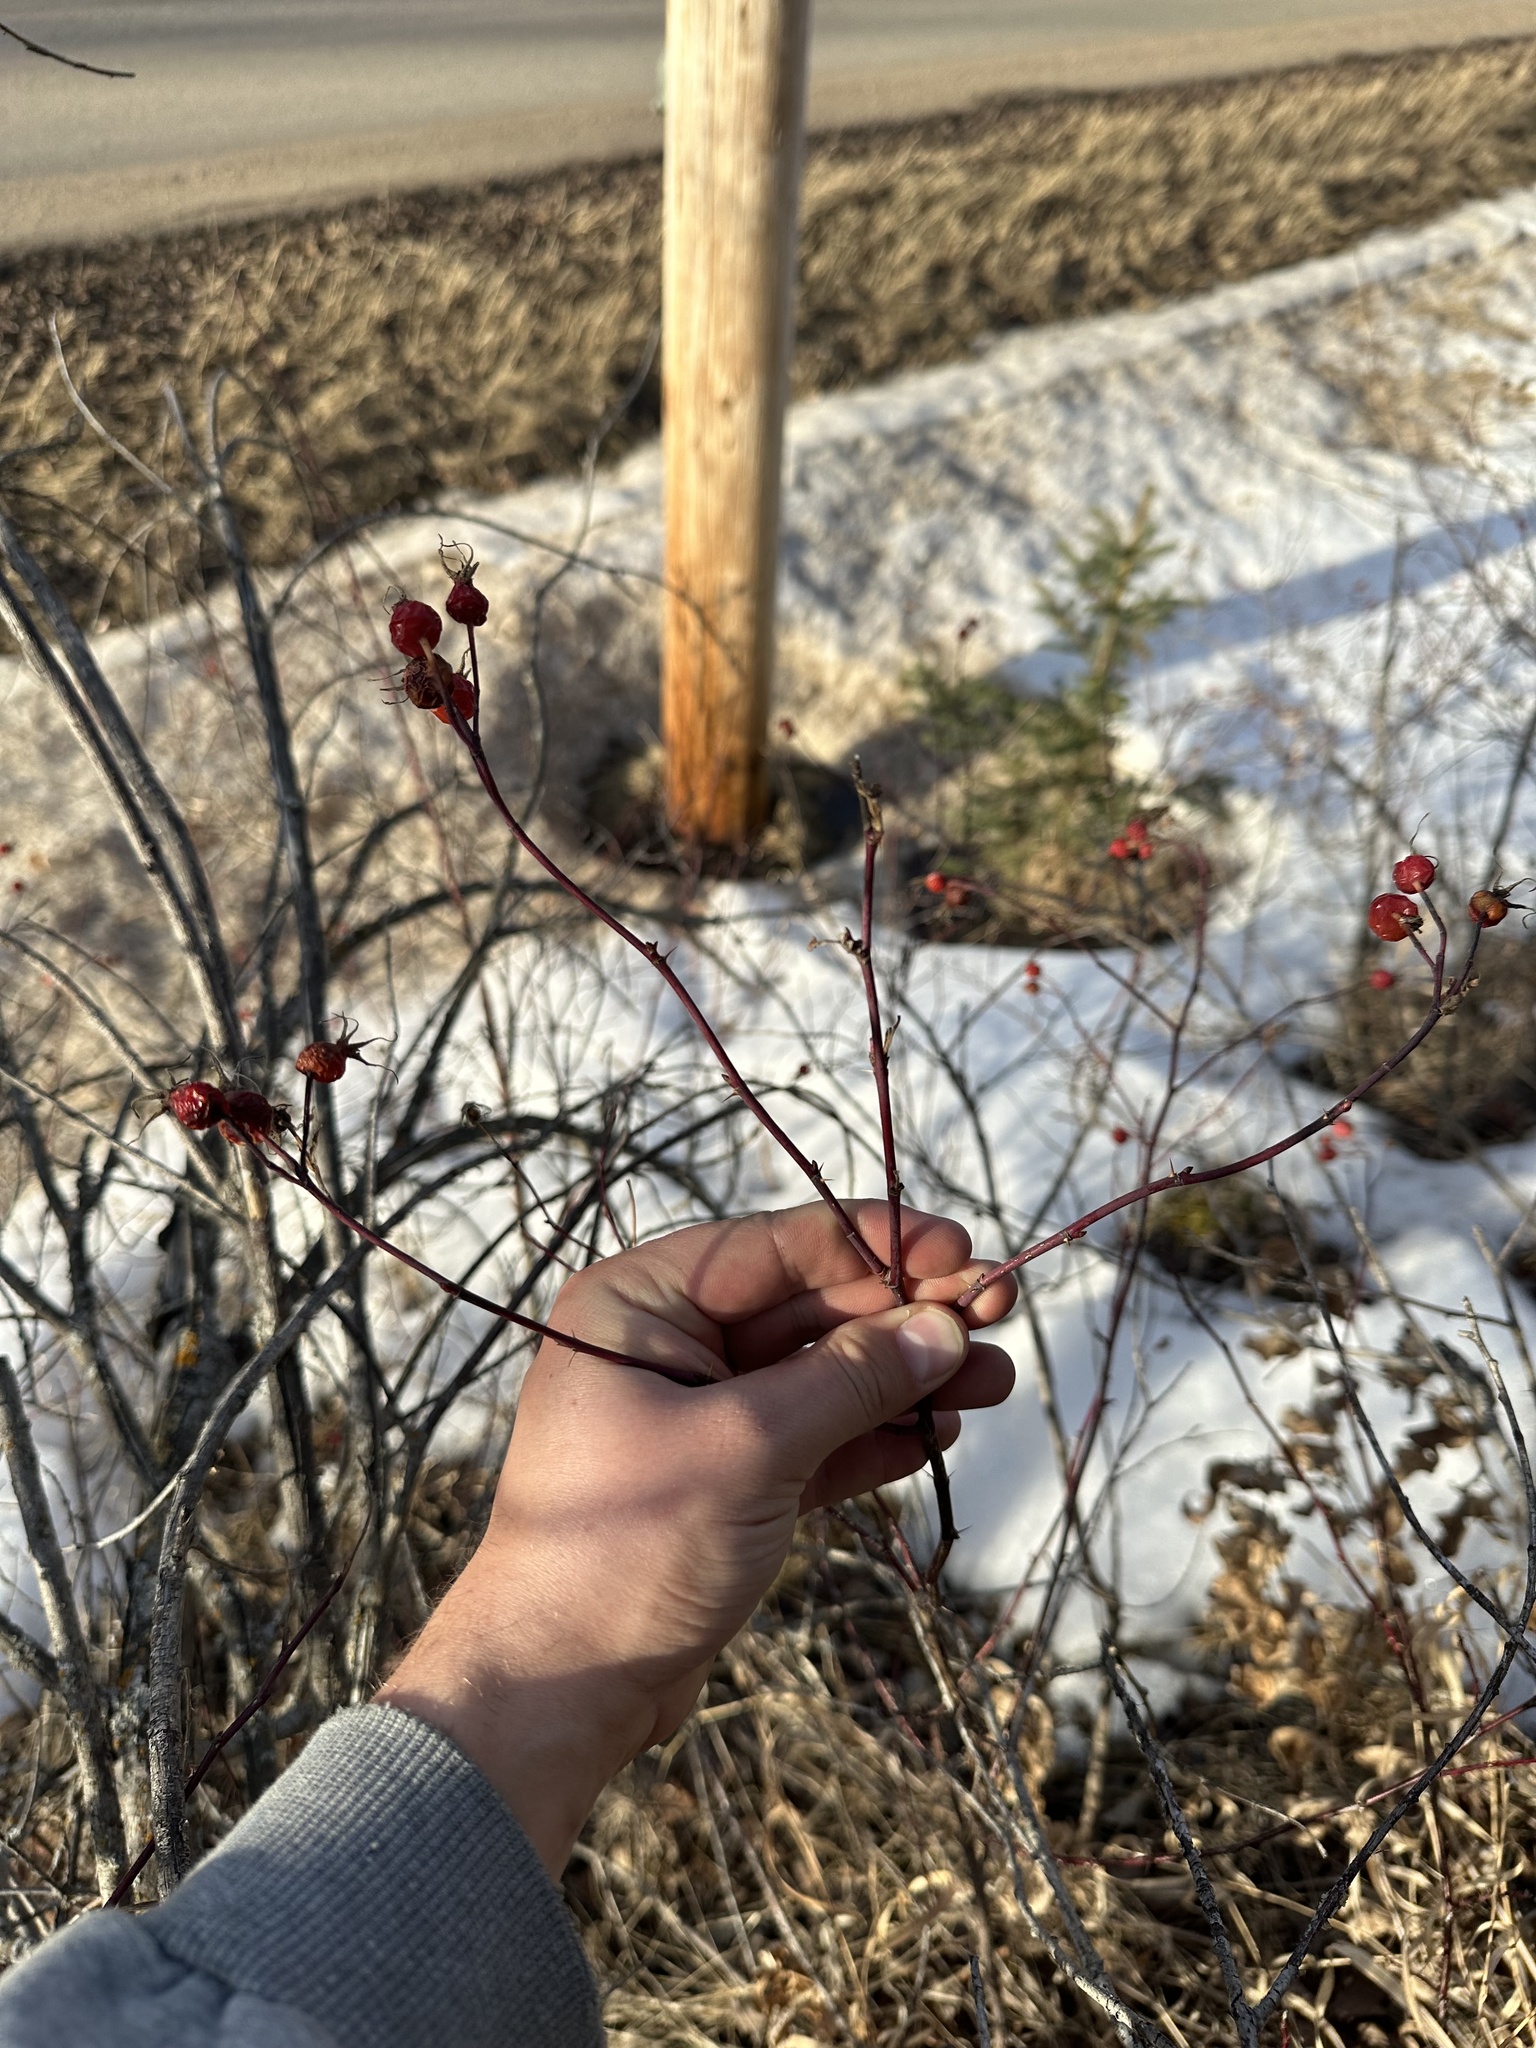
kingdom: Plantae
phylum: Tracheophyta
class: Magnoliopsida
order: Rosales
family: Rosaceae
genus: Rosa
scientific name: Rosa woodsii
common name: Woods's rose
